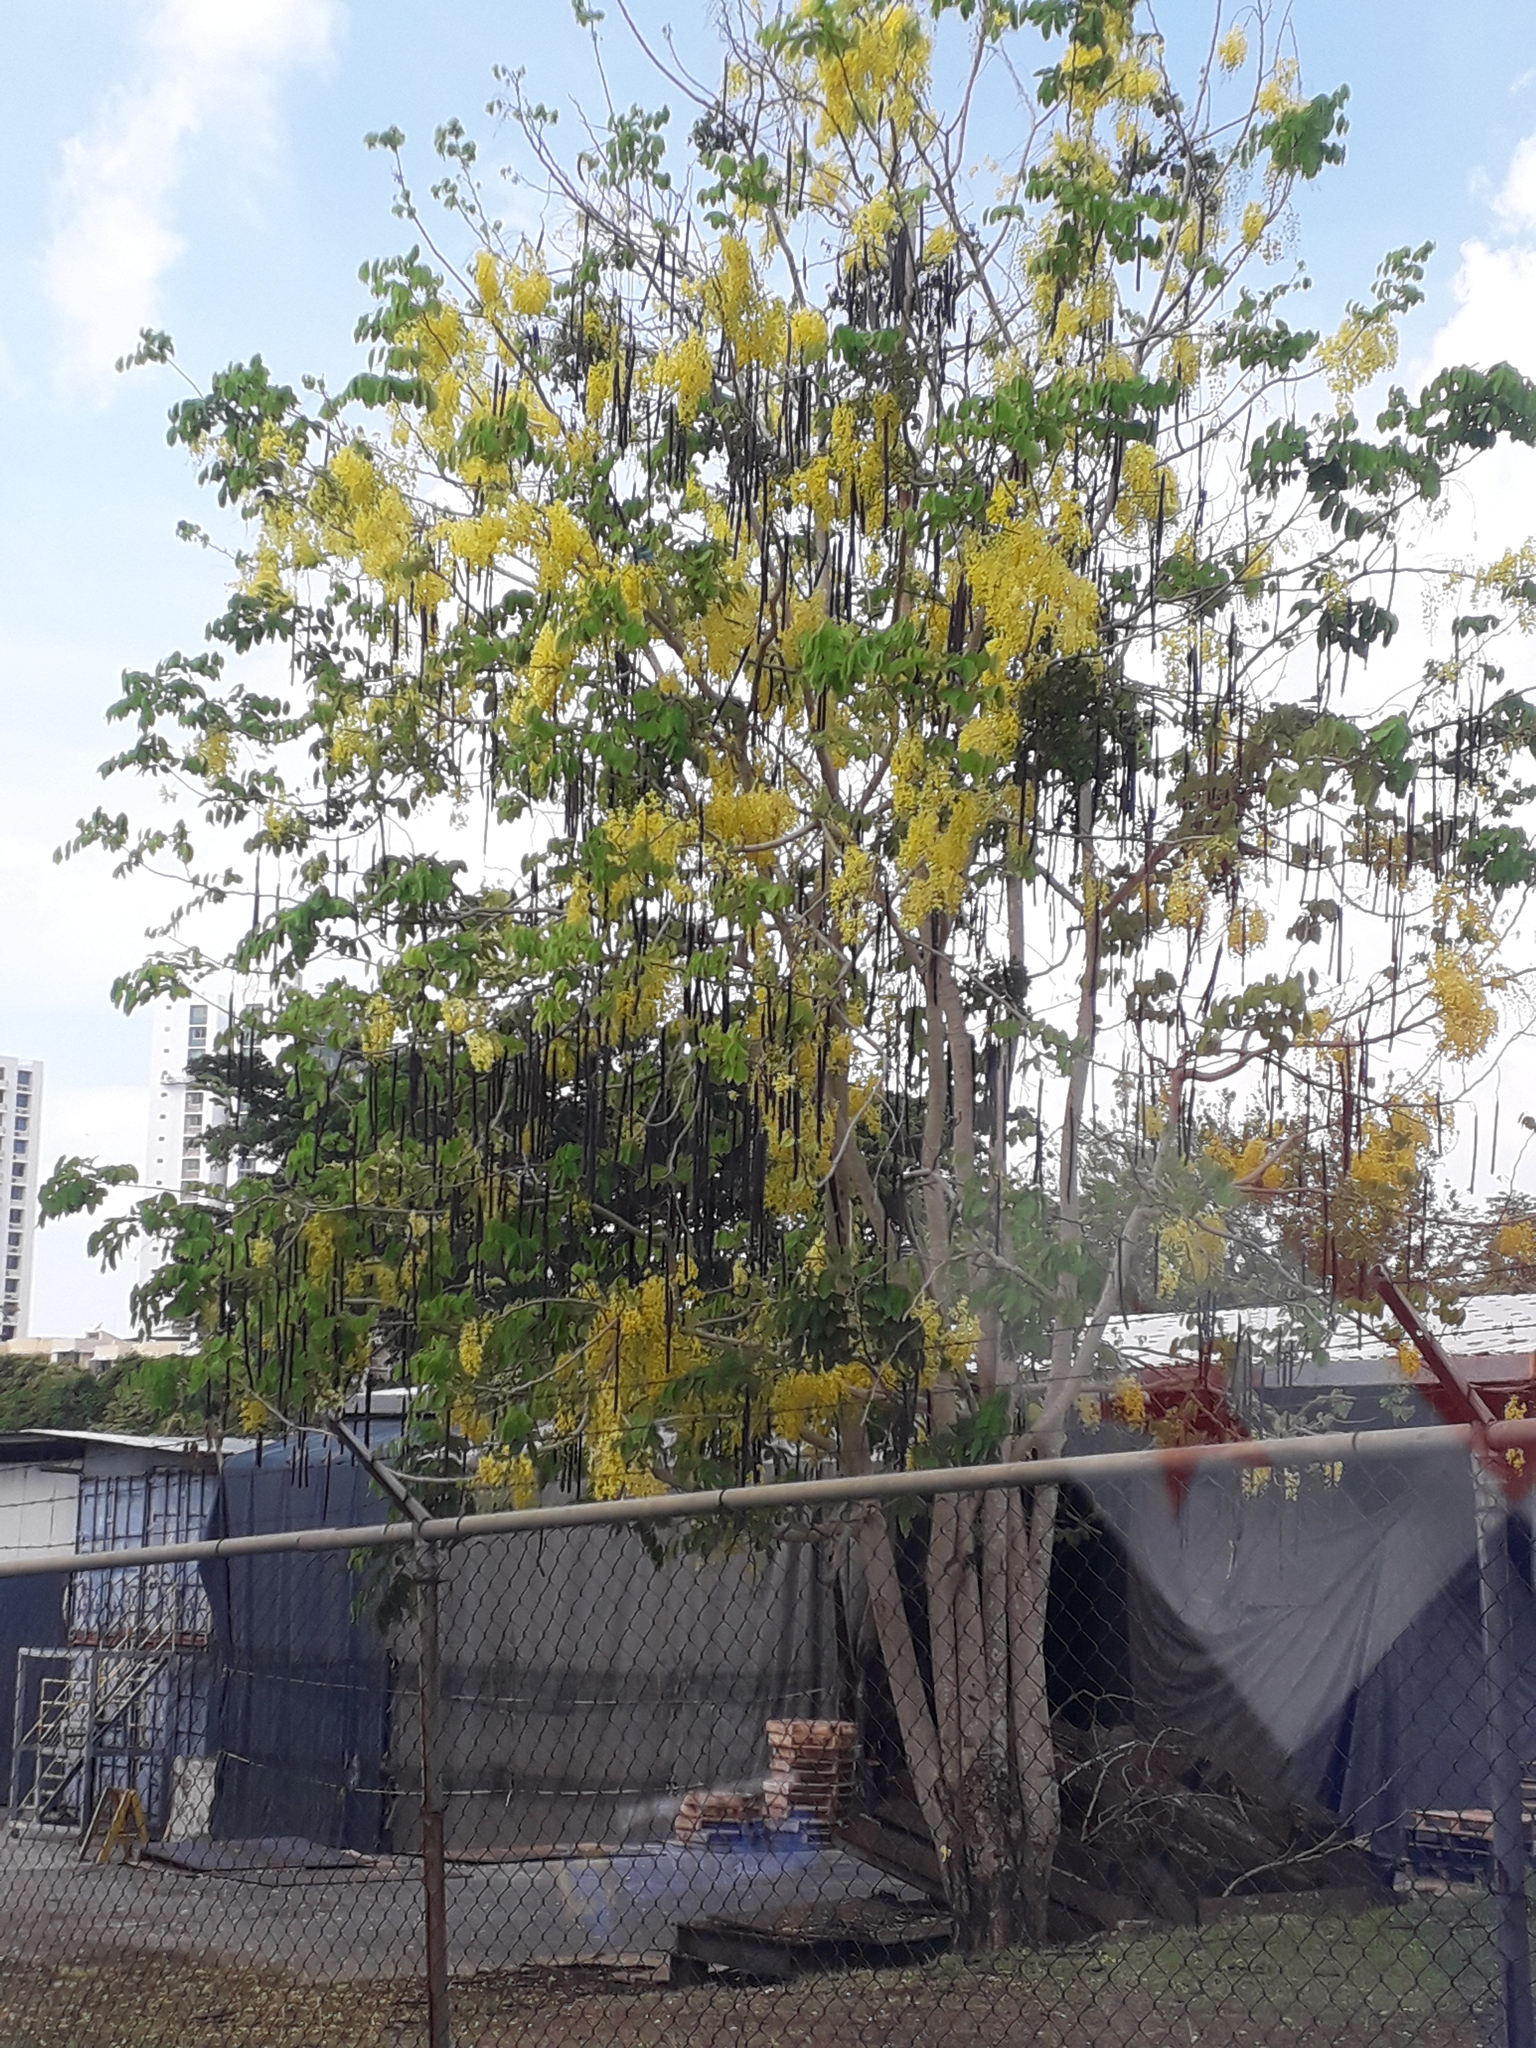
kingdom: Plantae
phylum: Tracheophyta
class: Magnoliopsida
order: Fabales
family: Fabaceae
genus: Cassia
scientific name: Cassia fistula
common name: Golden shower
